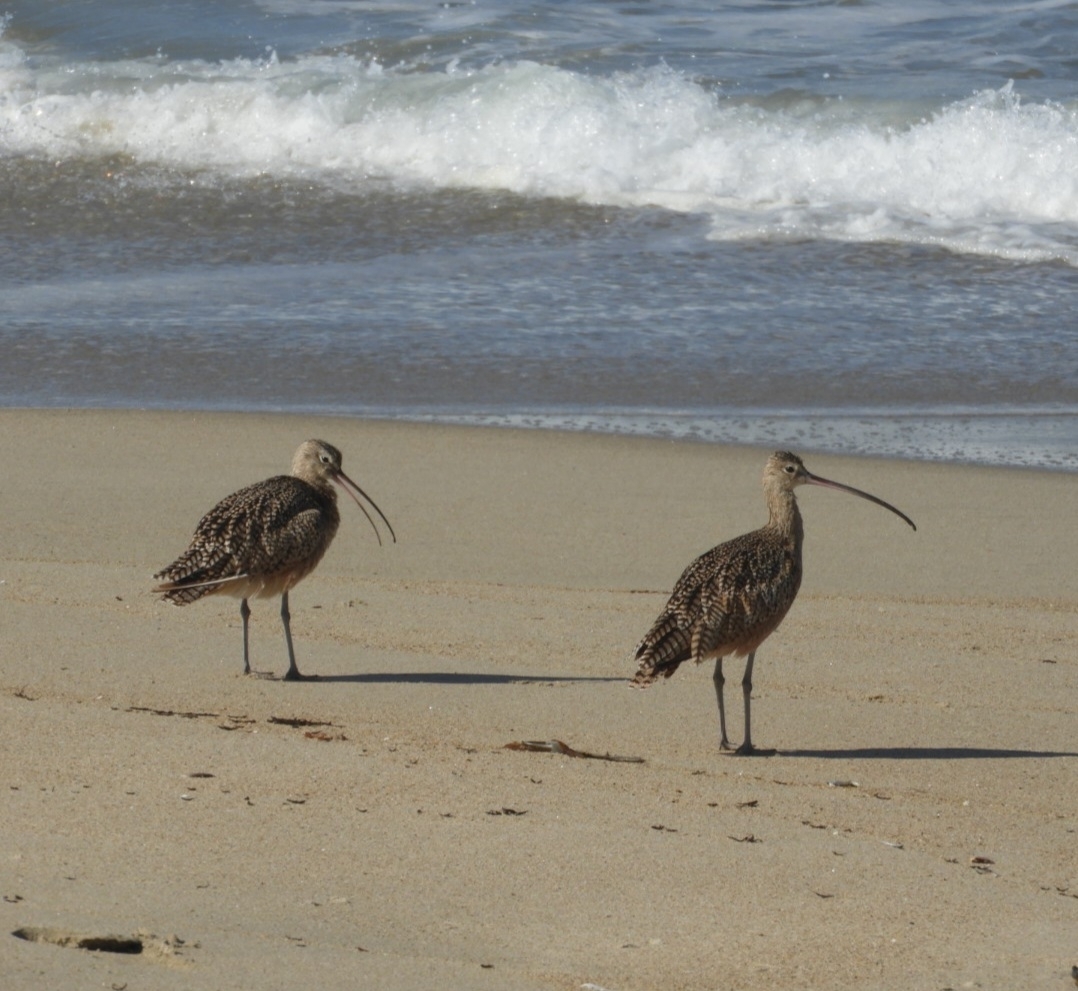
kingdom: Animalia
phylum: Chordata
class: Aves
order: Charadriiformes
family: Scolopacidae
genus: Numenius
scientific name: Numenius americanus
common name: Long-billed curlew
